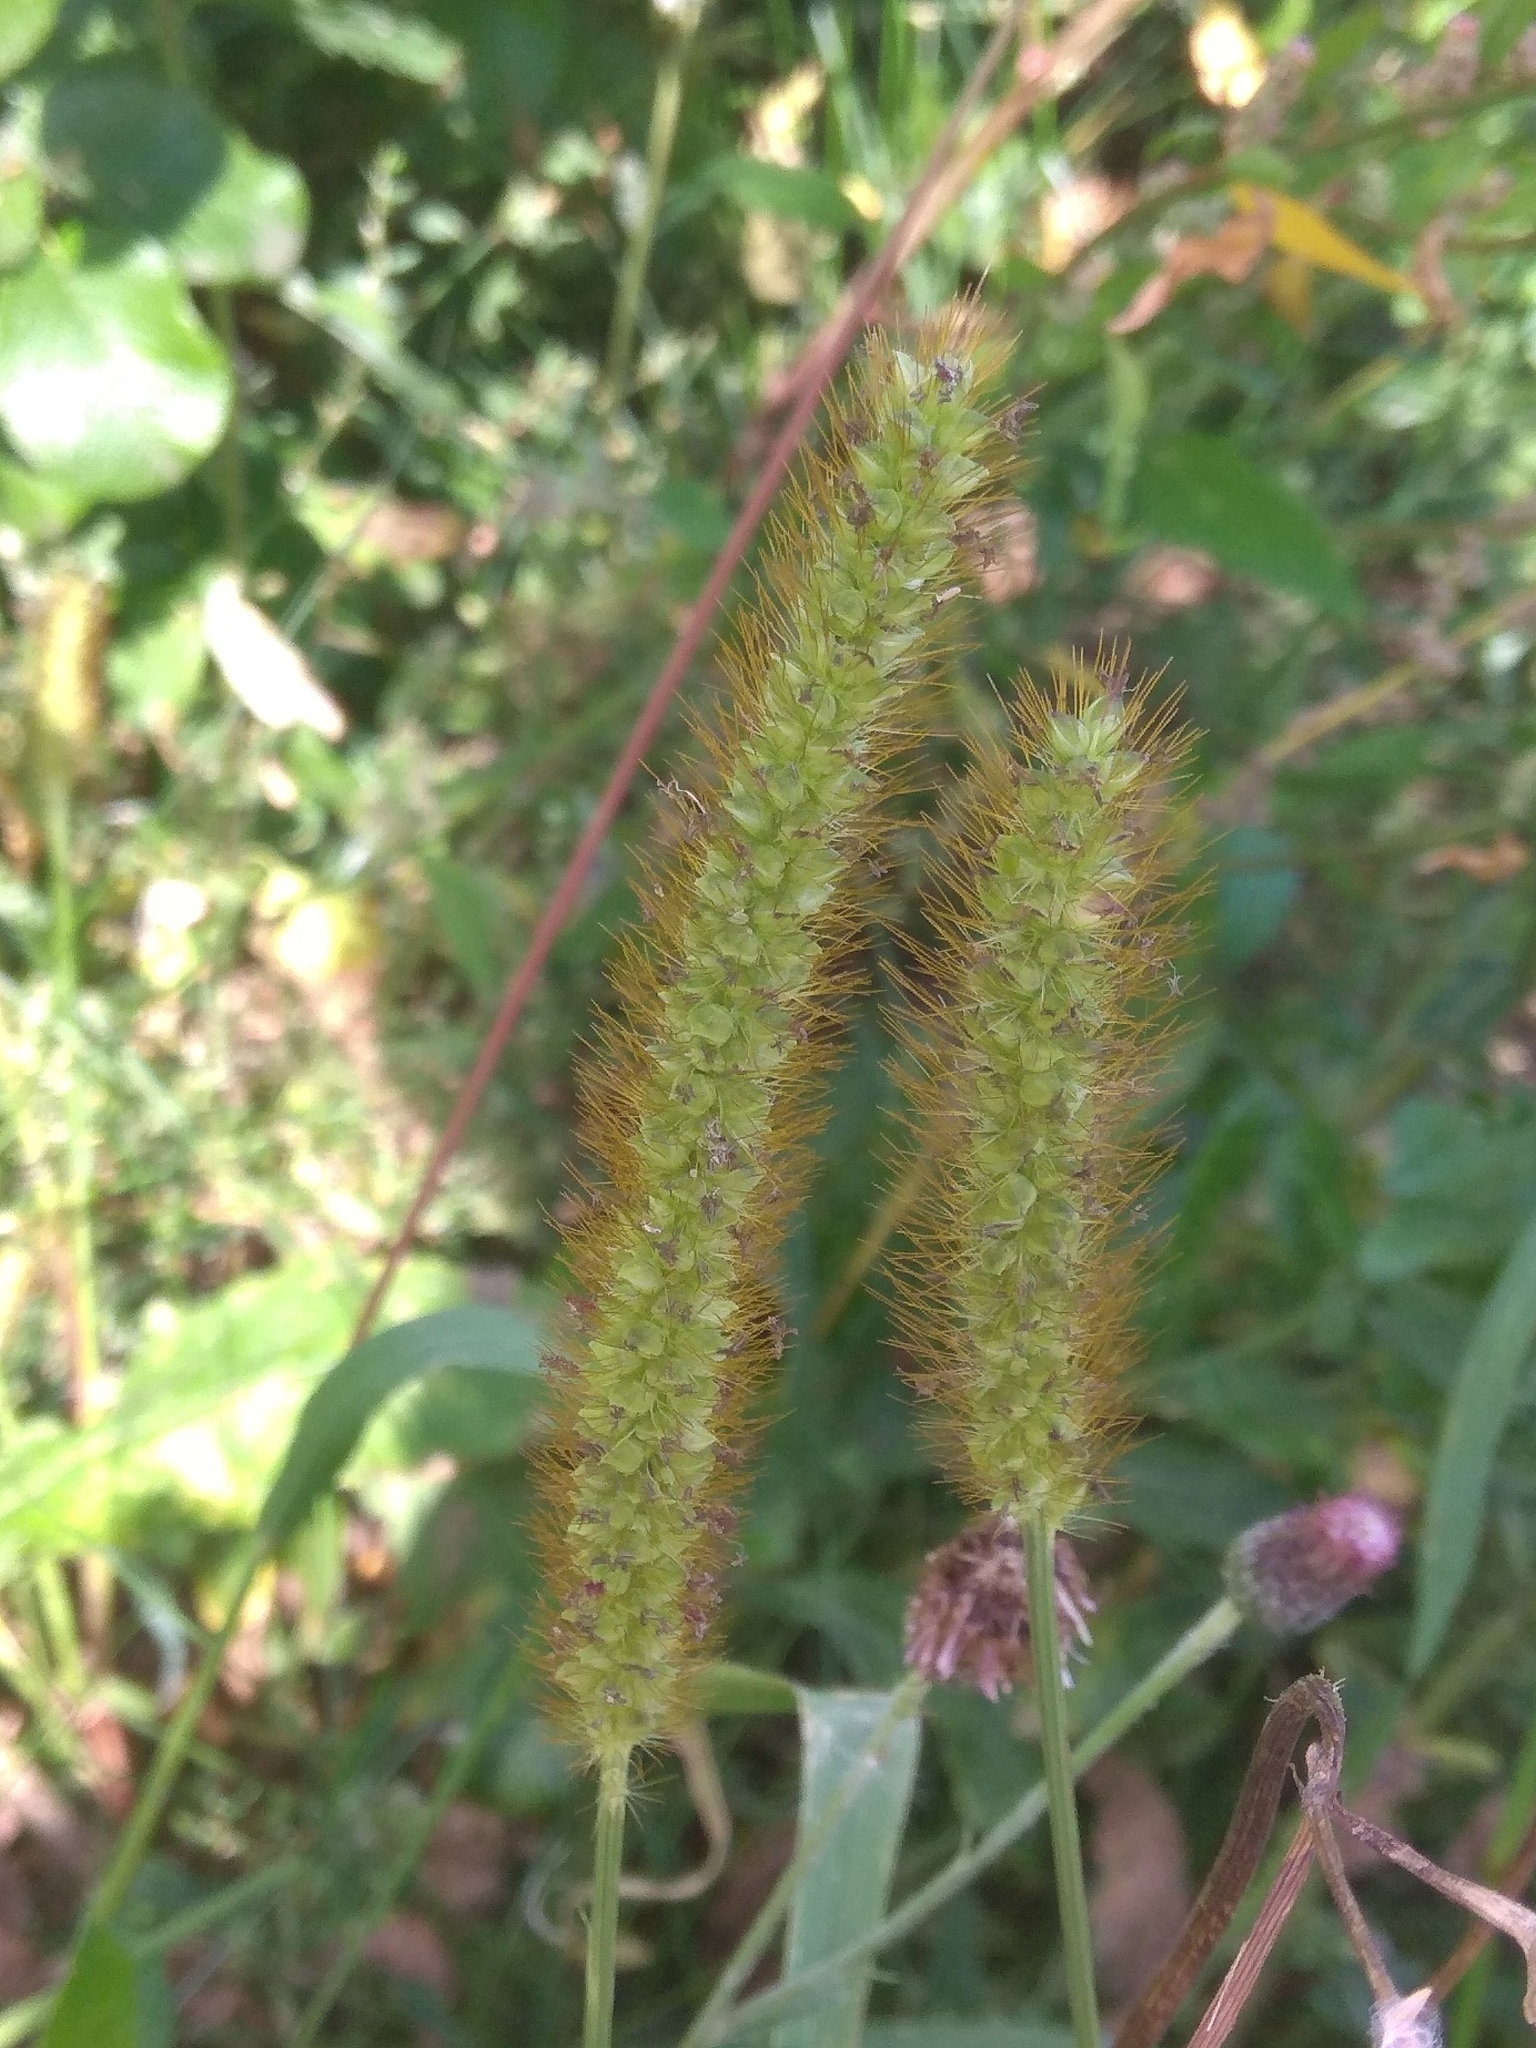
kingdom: Plantae
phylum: Tracheophyta
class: Liliopsida
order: Poales
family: Poaceae
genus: Setaria
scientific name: Setaria pumila
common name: Yellow bristle-grass
